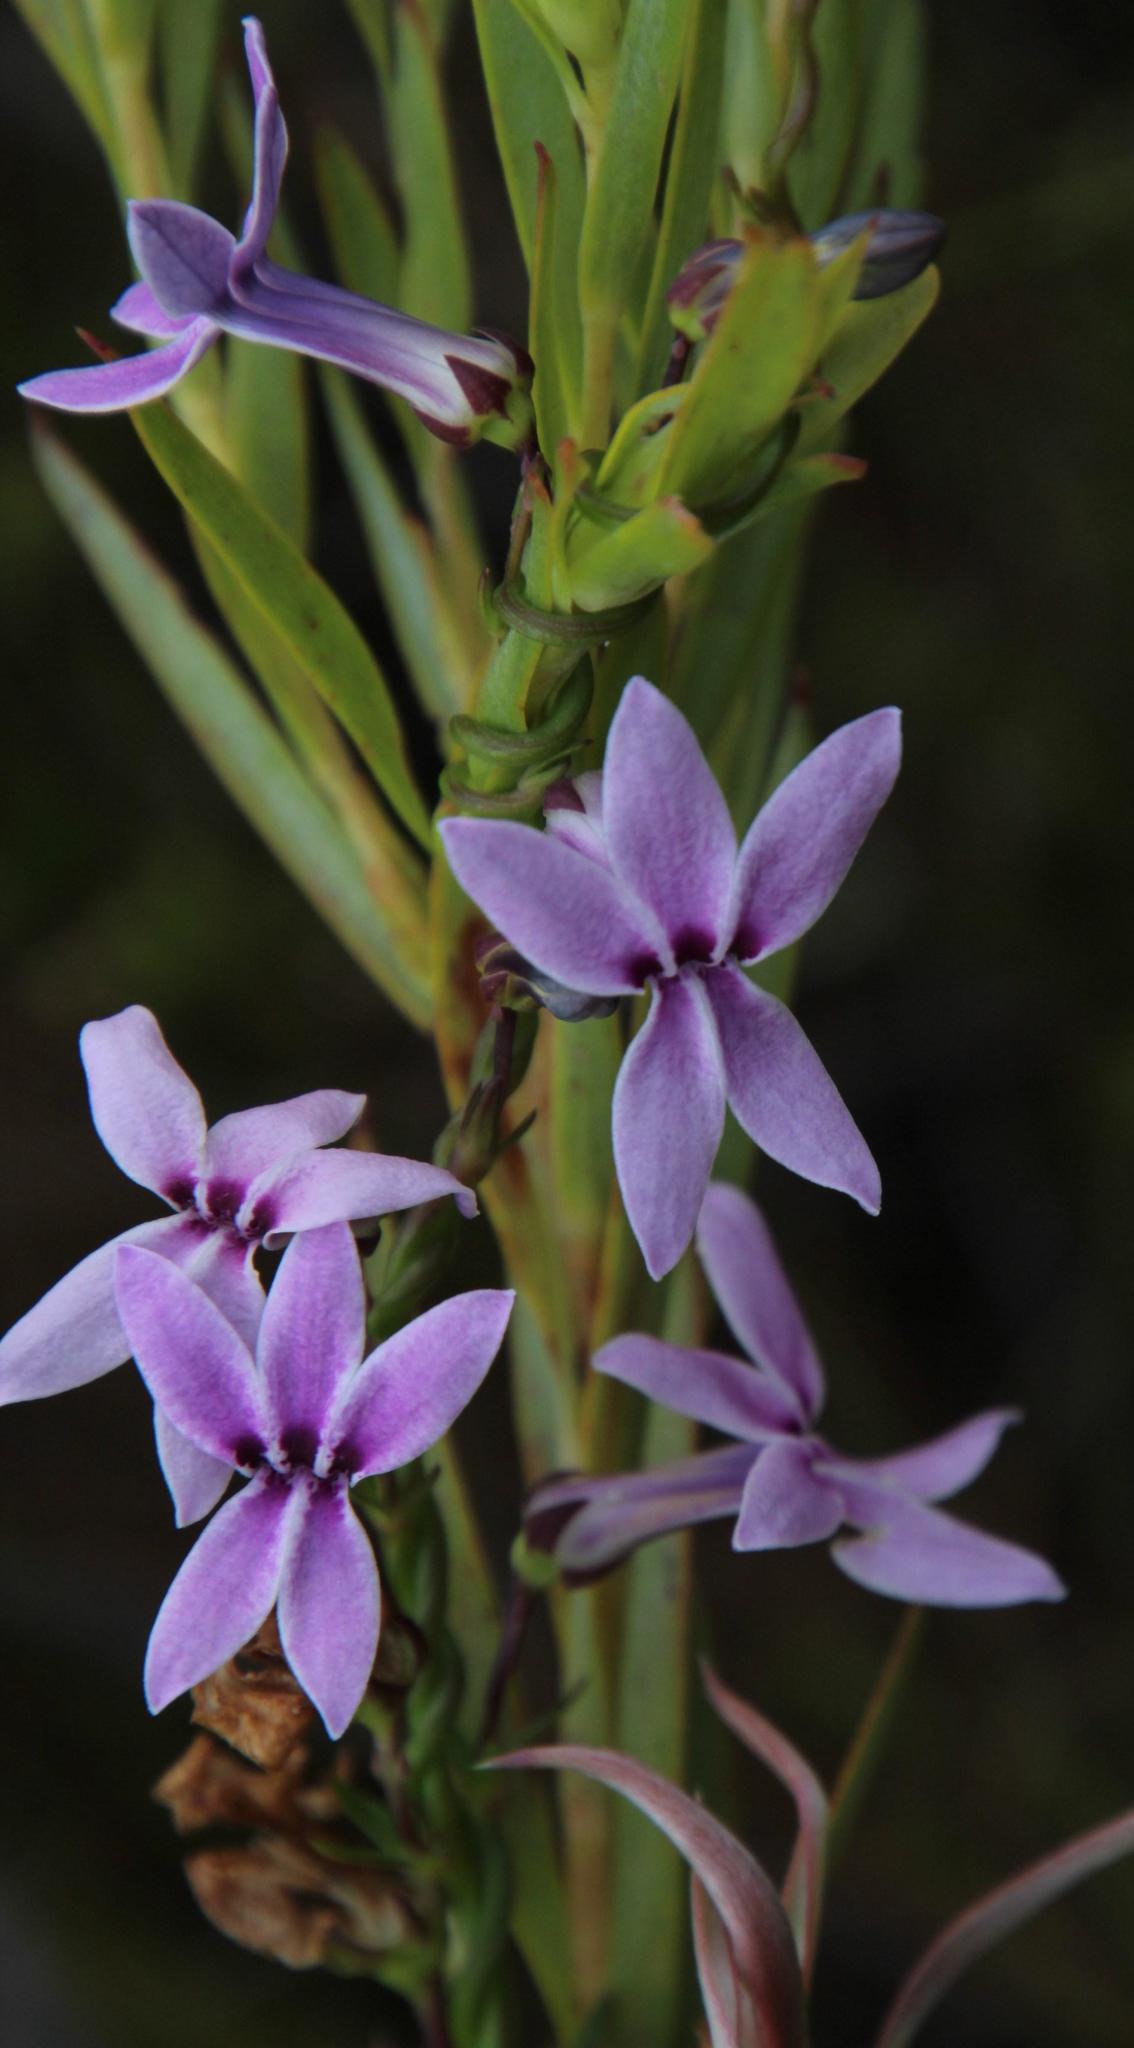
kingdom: Plantae
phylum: Tracheophyta
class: Magnoliopsida
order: Asterales
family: Campanulaceae
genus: Cyphia
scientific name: Cyphia volubilis
